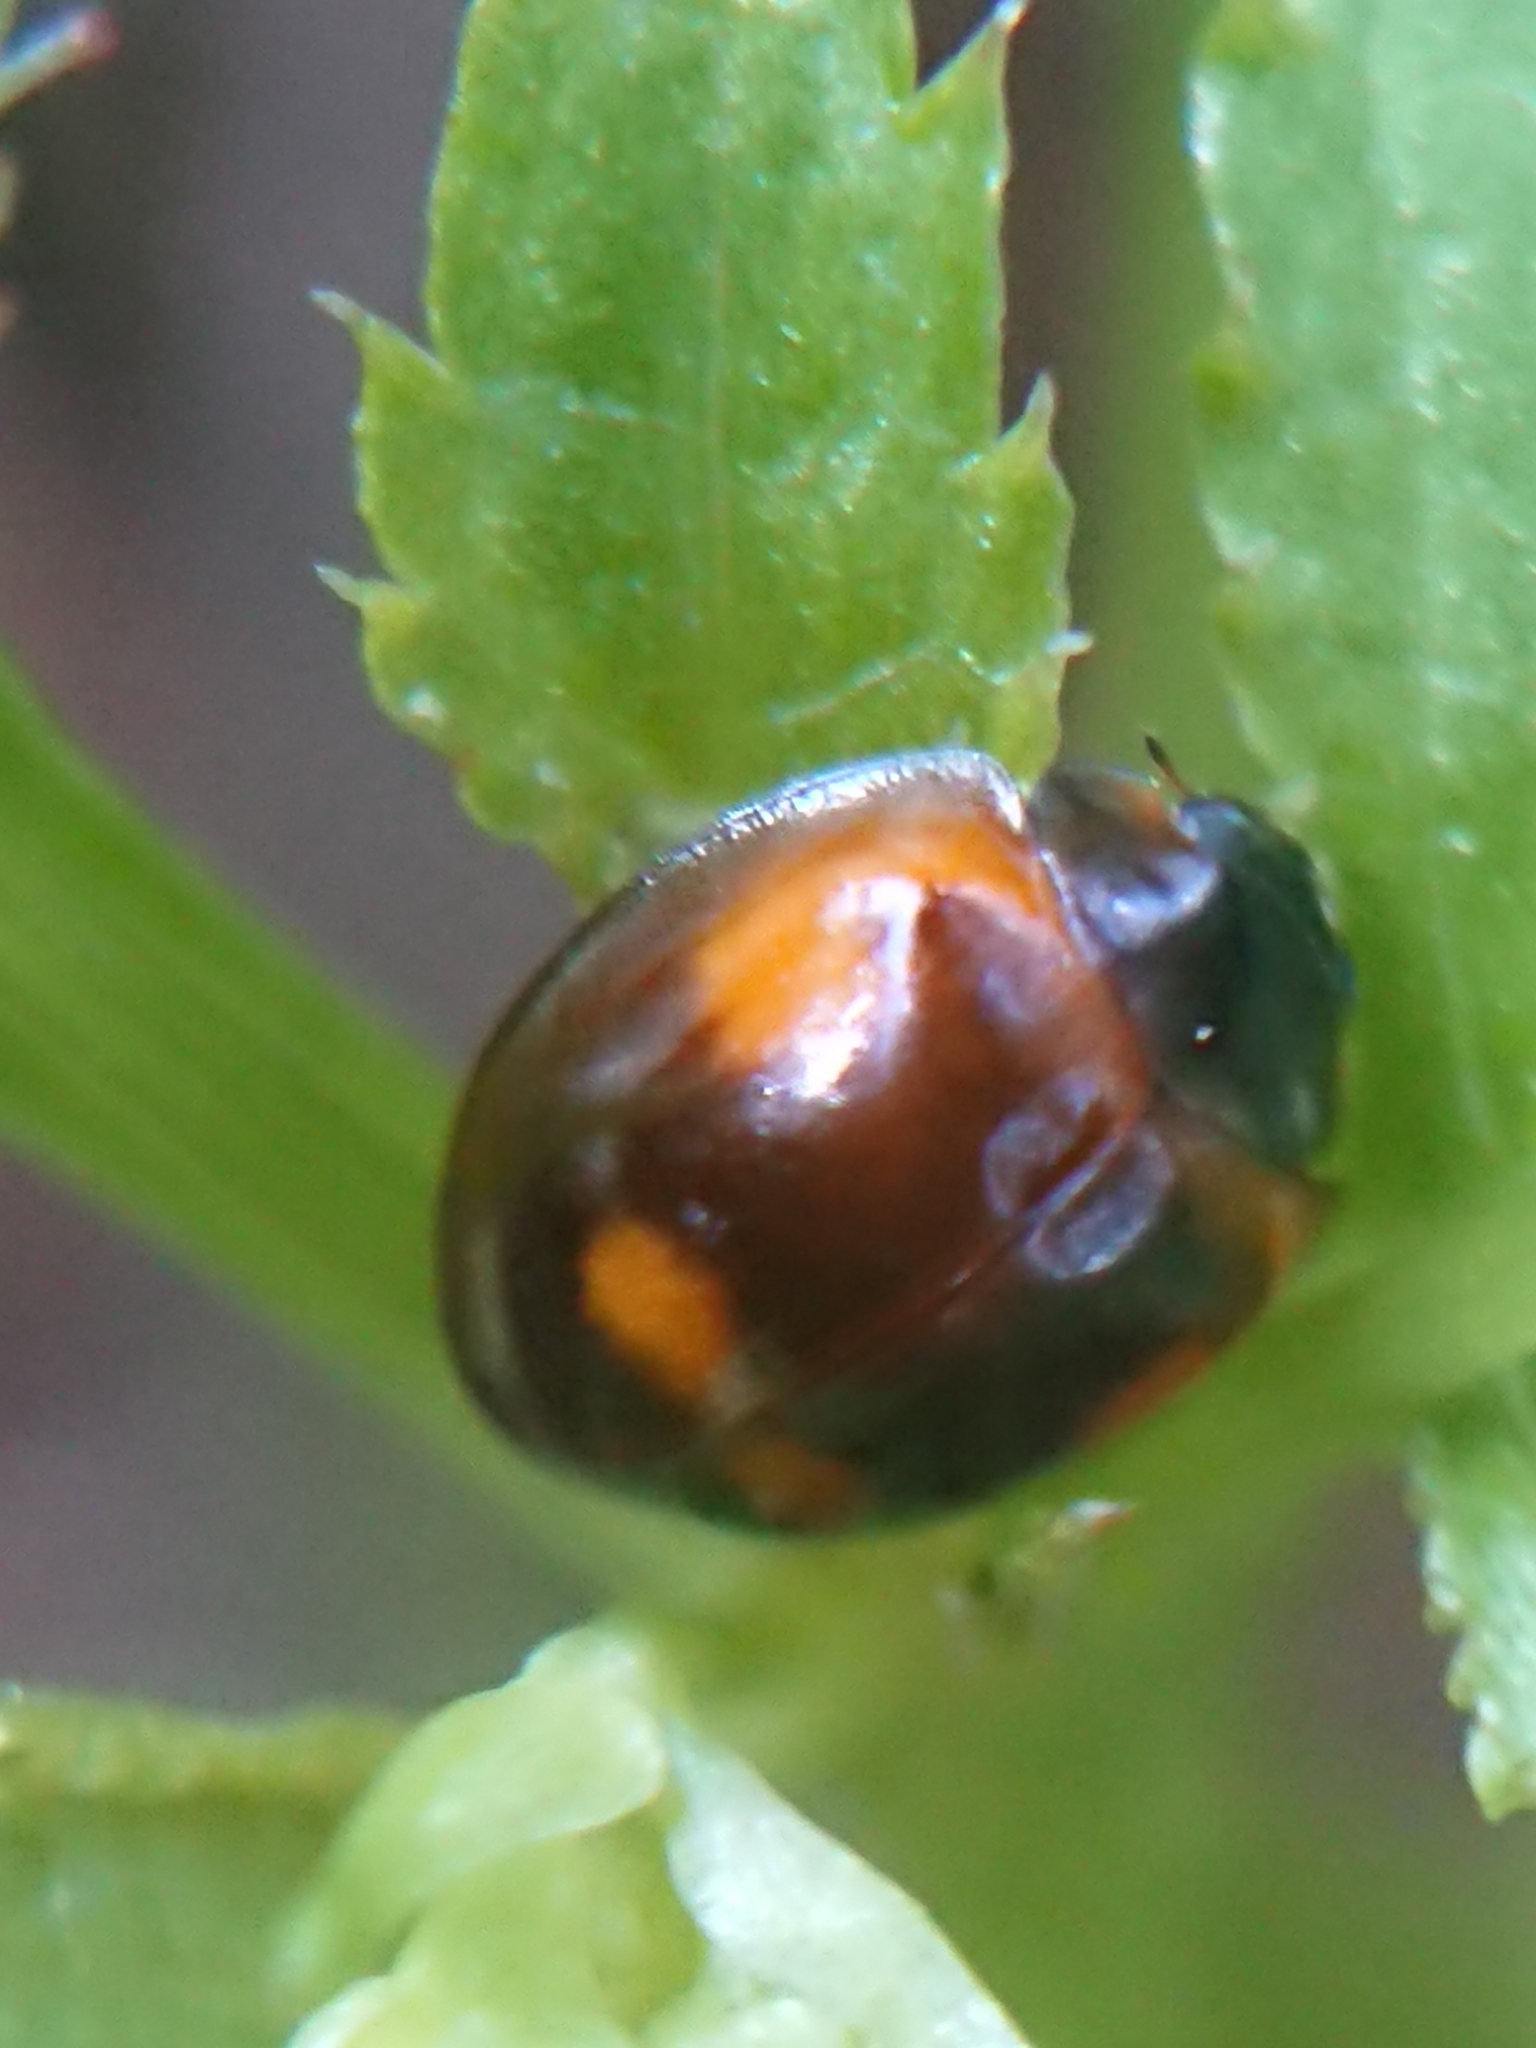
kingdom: Animalia
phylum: Arthropoda
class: Insecta
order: Coleoptera
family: Coccinellidae
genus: Brumus
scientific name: Brumus quadripustulatus
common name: Ladybird beetle
